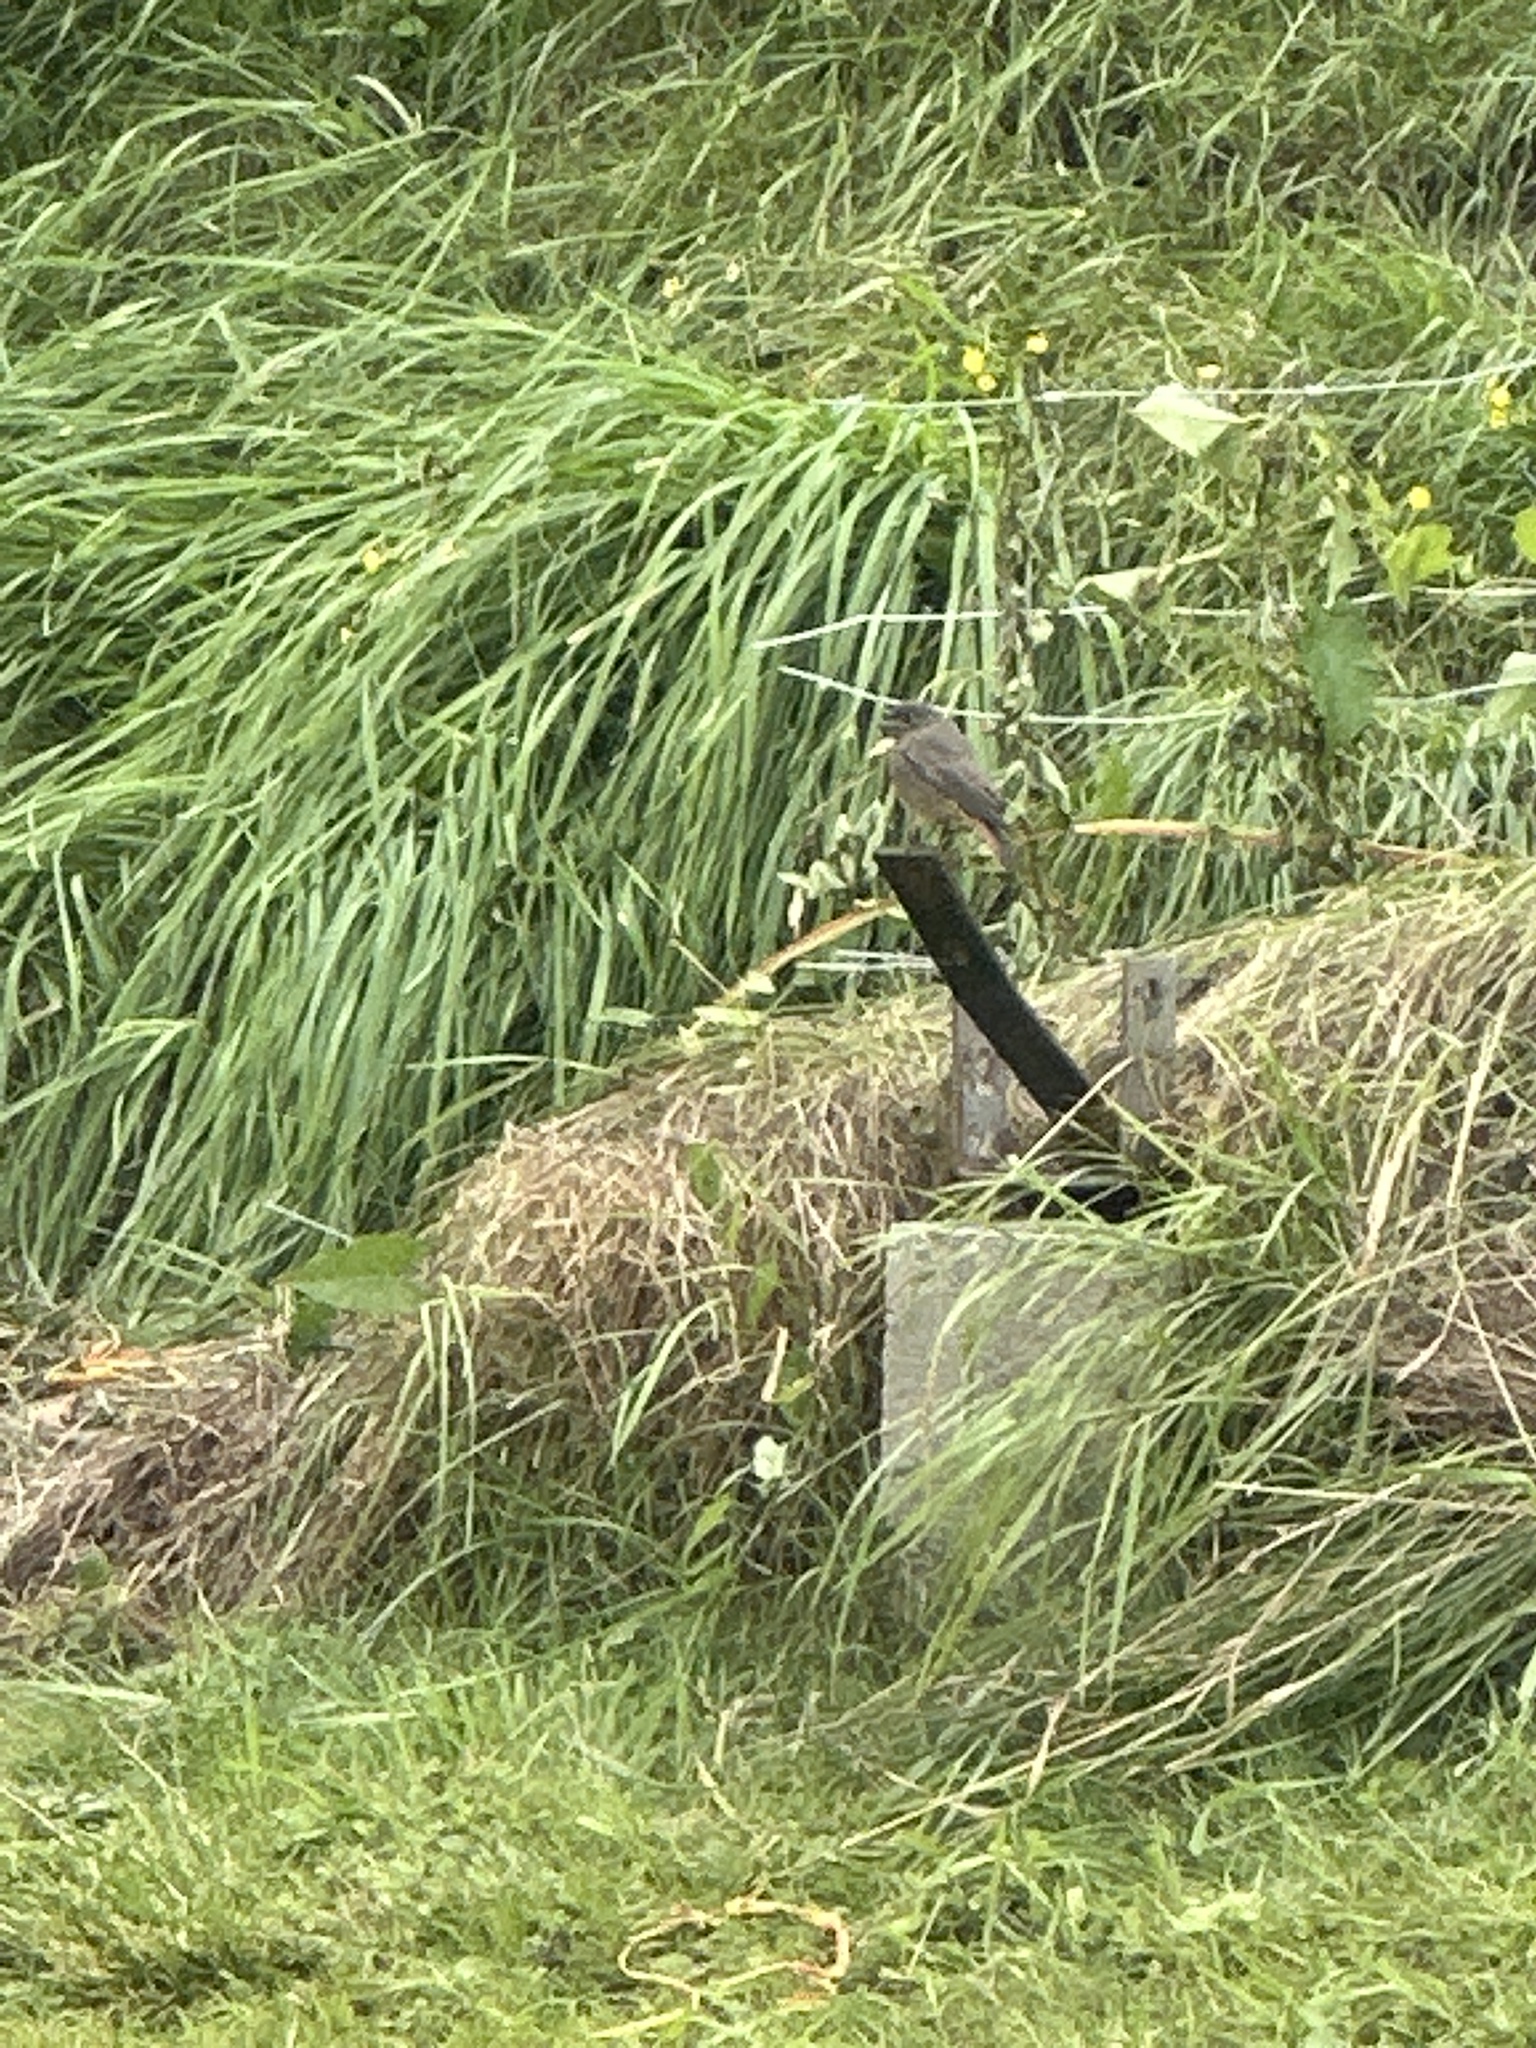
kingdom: Animalia
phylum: Chordata
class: Aves
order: Passeriformes
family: Muscicapidae
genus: Phoenicurus
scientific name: Phoenicurus ochruros
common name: Black redstart
